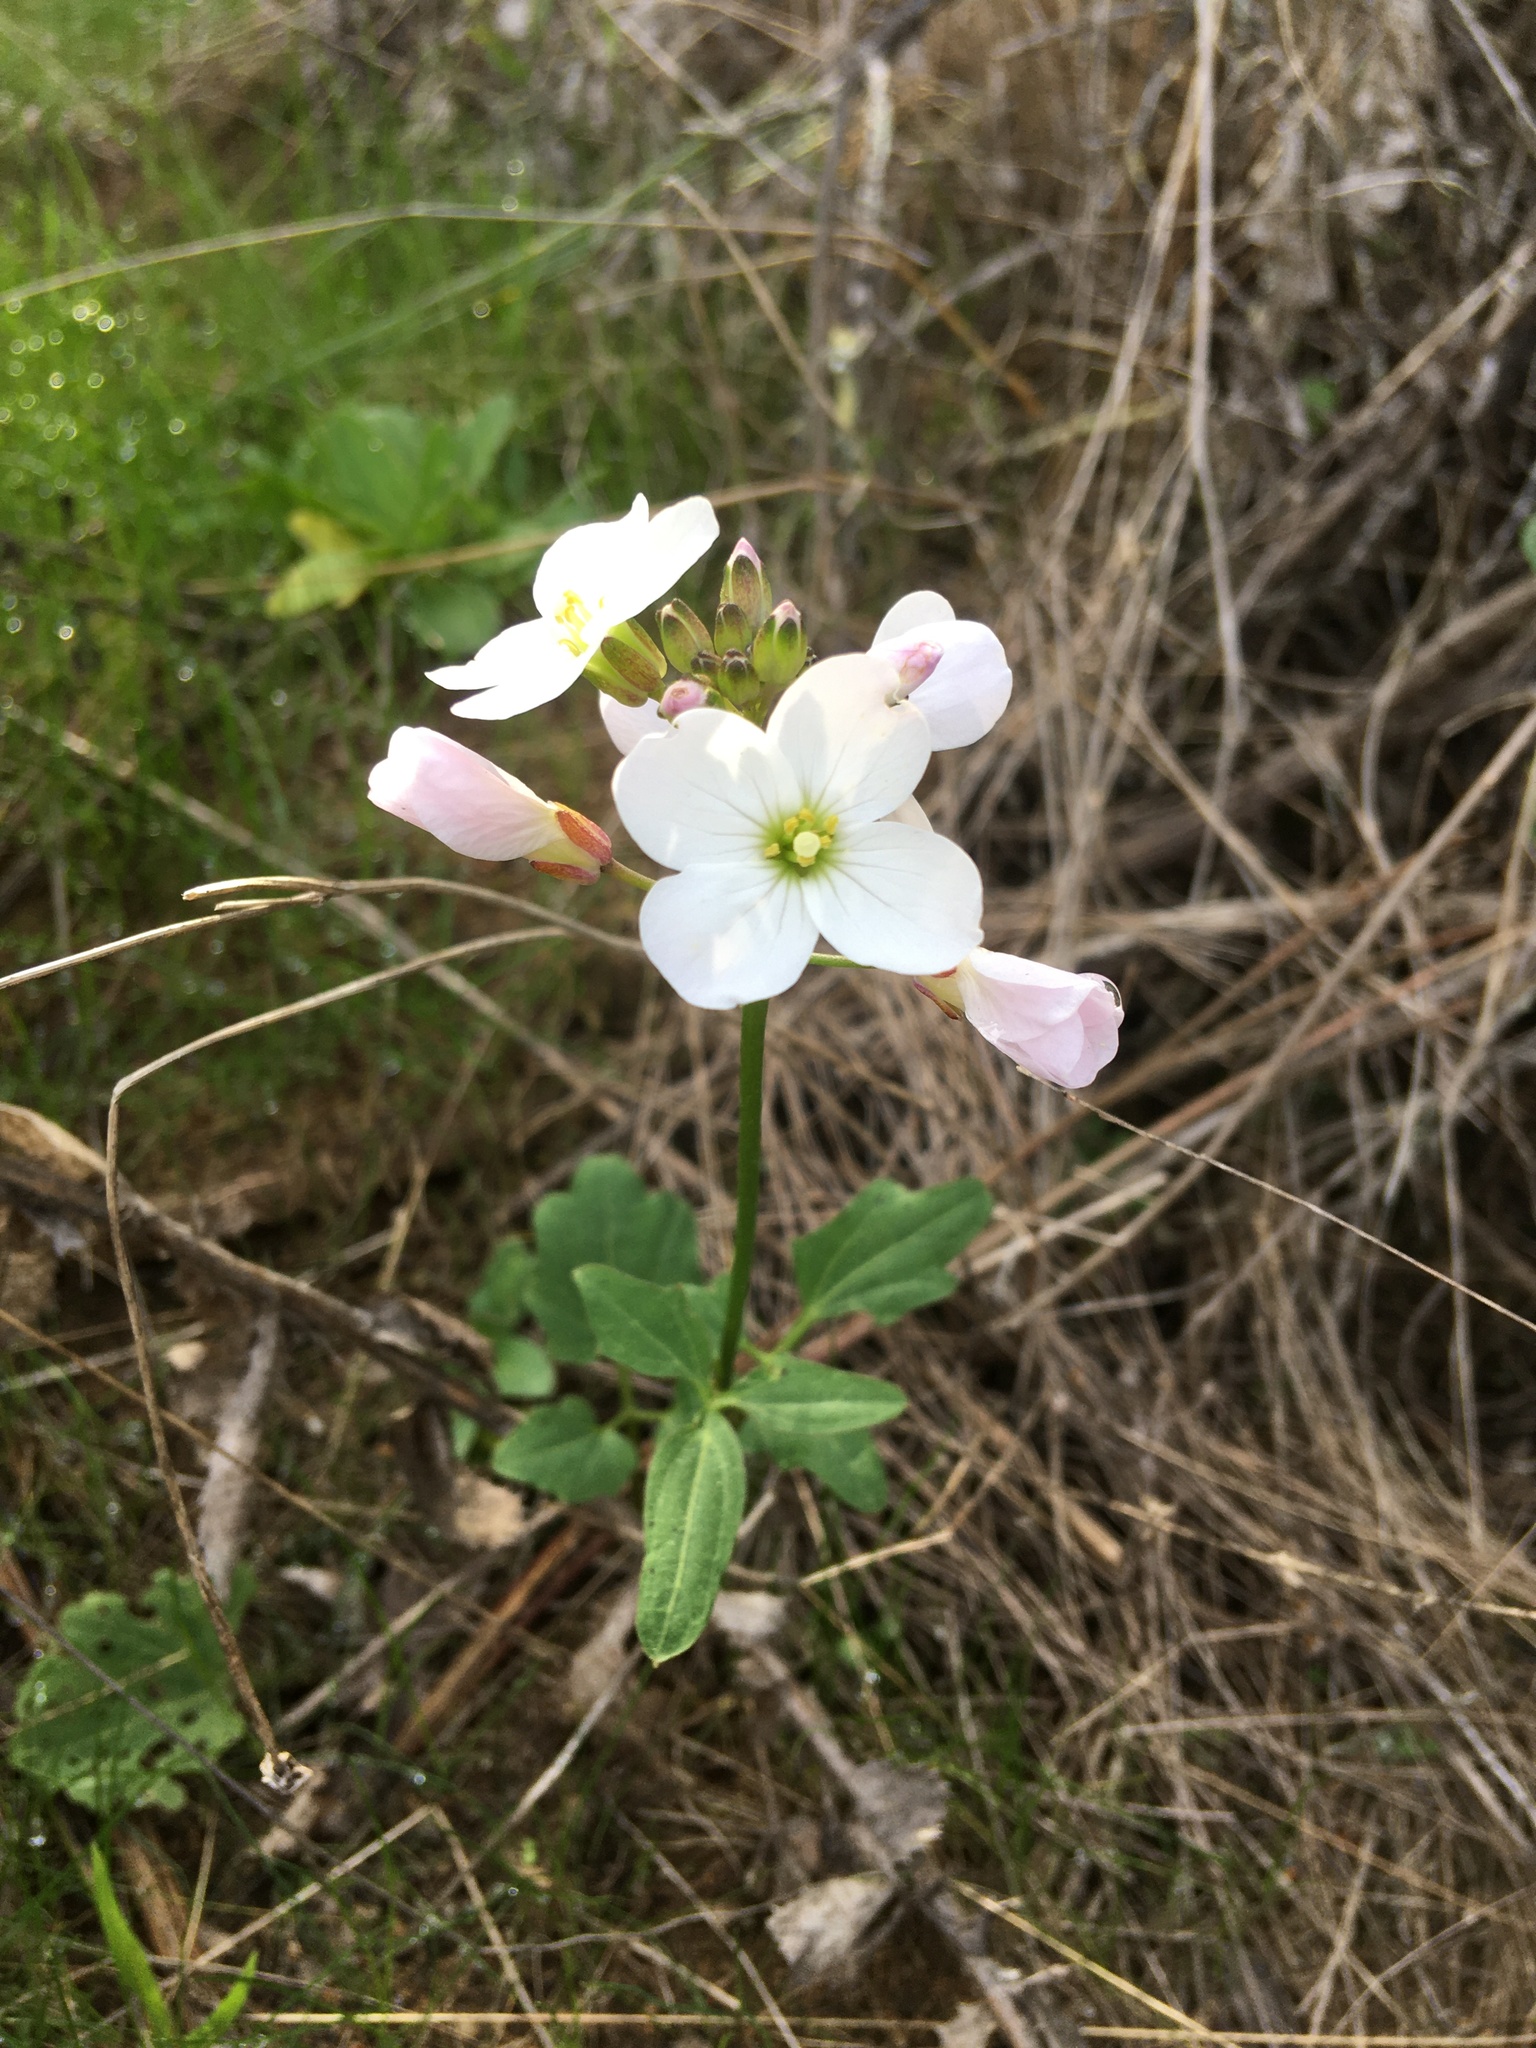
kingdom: Plantae
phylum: Tracheophyta
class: Magnoliopsida
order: Brassicales
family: Brassicaceae
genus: Cardamine
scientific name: Cardamine californica
